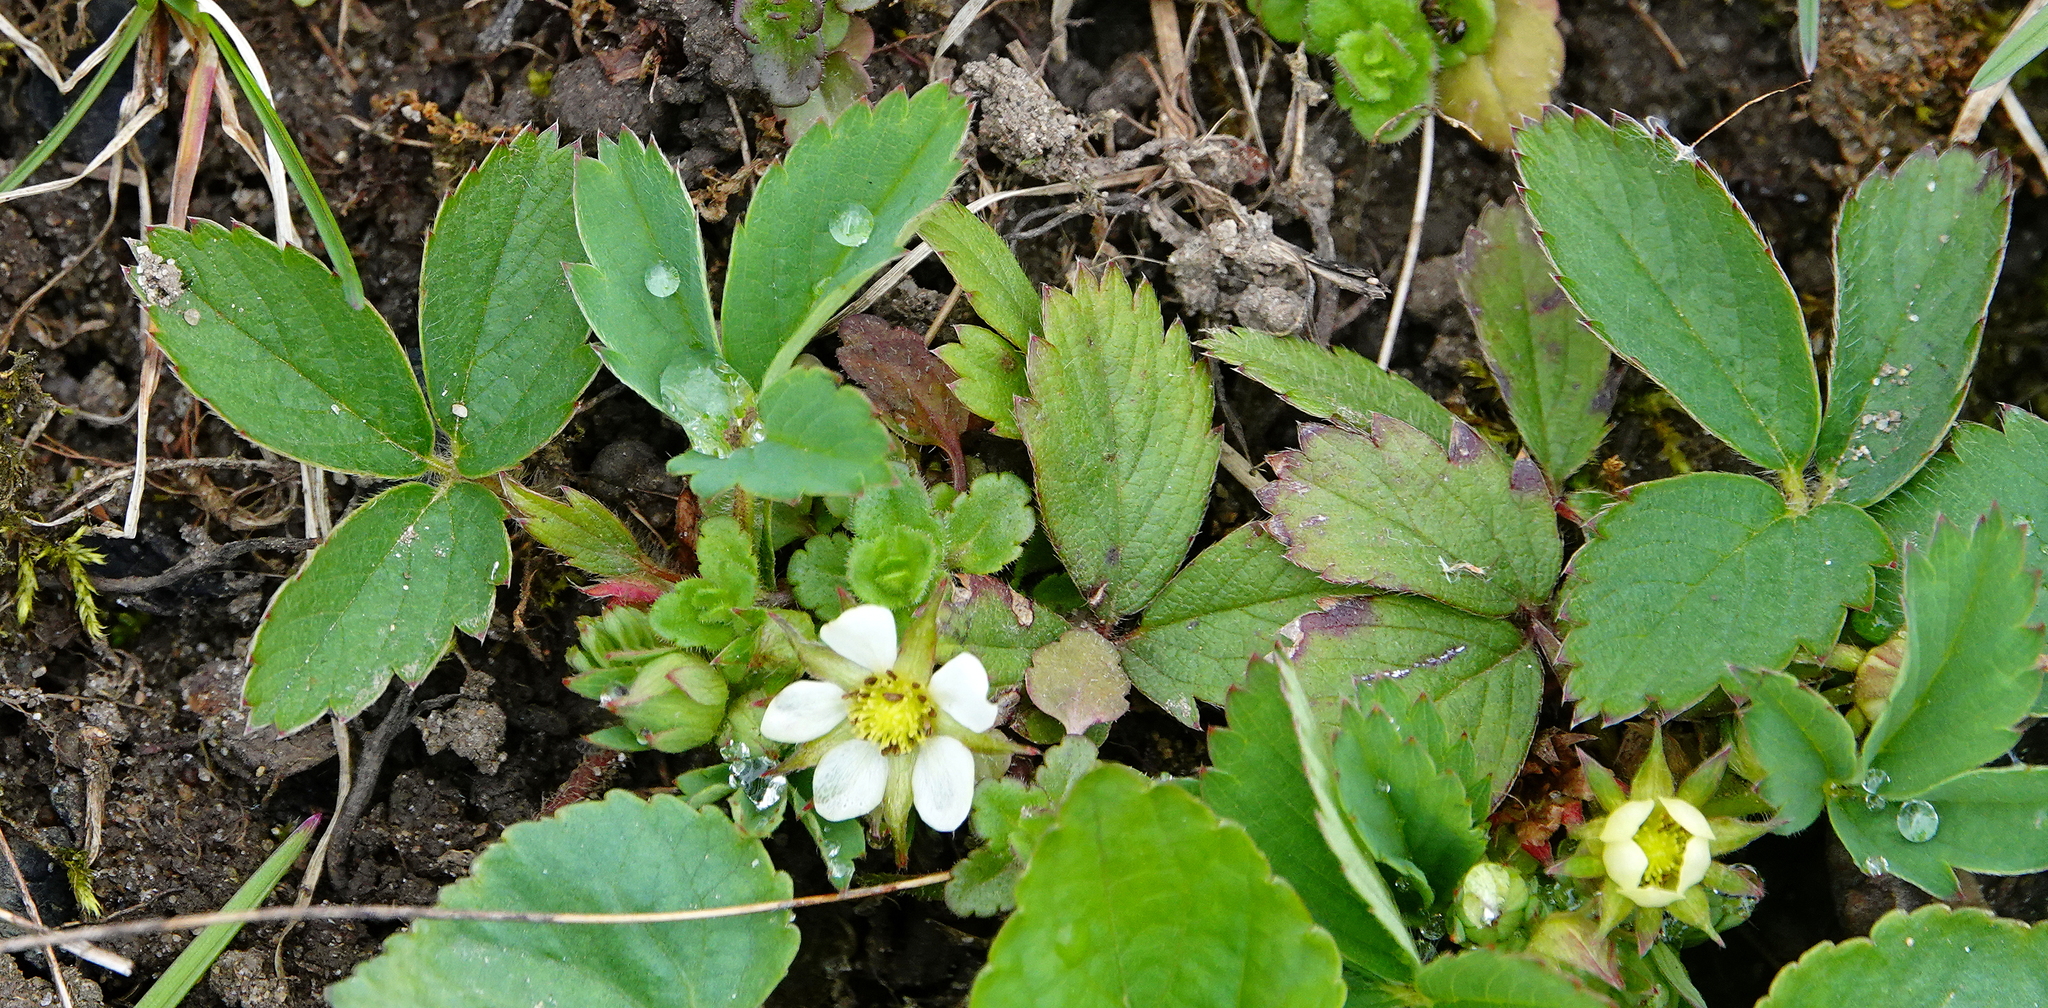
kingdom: Plantae
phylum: Tracheophyta
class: Magnoliopsida
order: Rosales
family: Rosaceae
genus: Fragaria
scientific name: Fragaria virginiana
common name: Thickleaved wild strawberry
